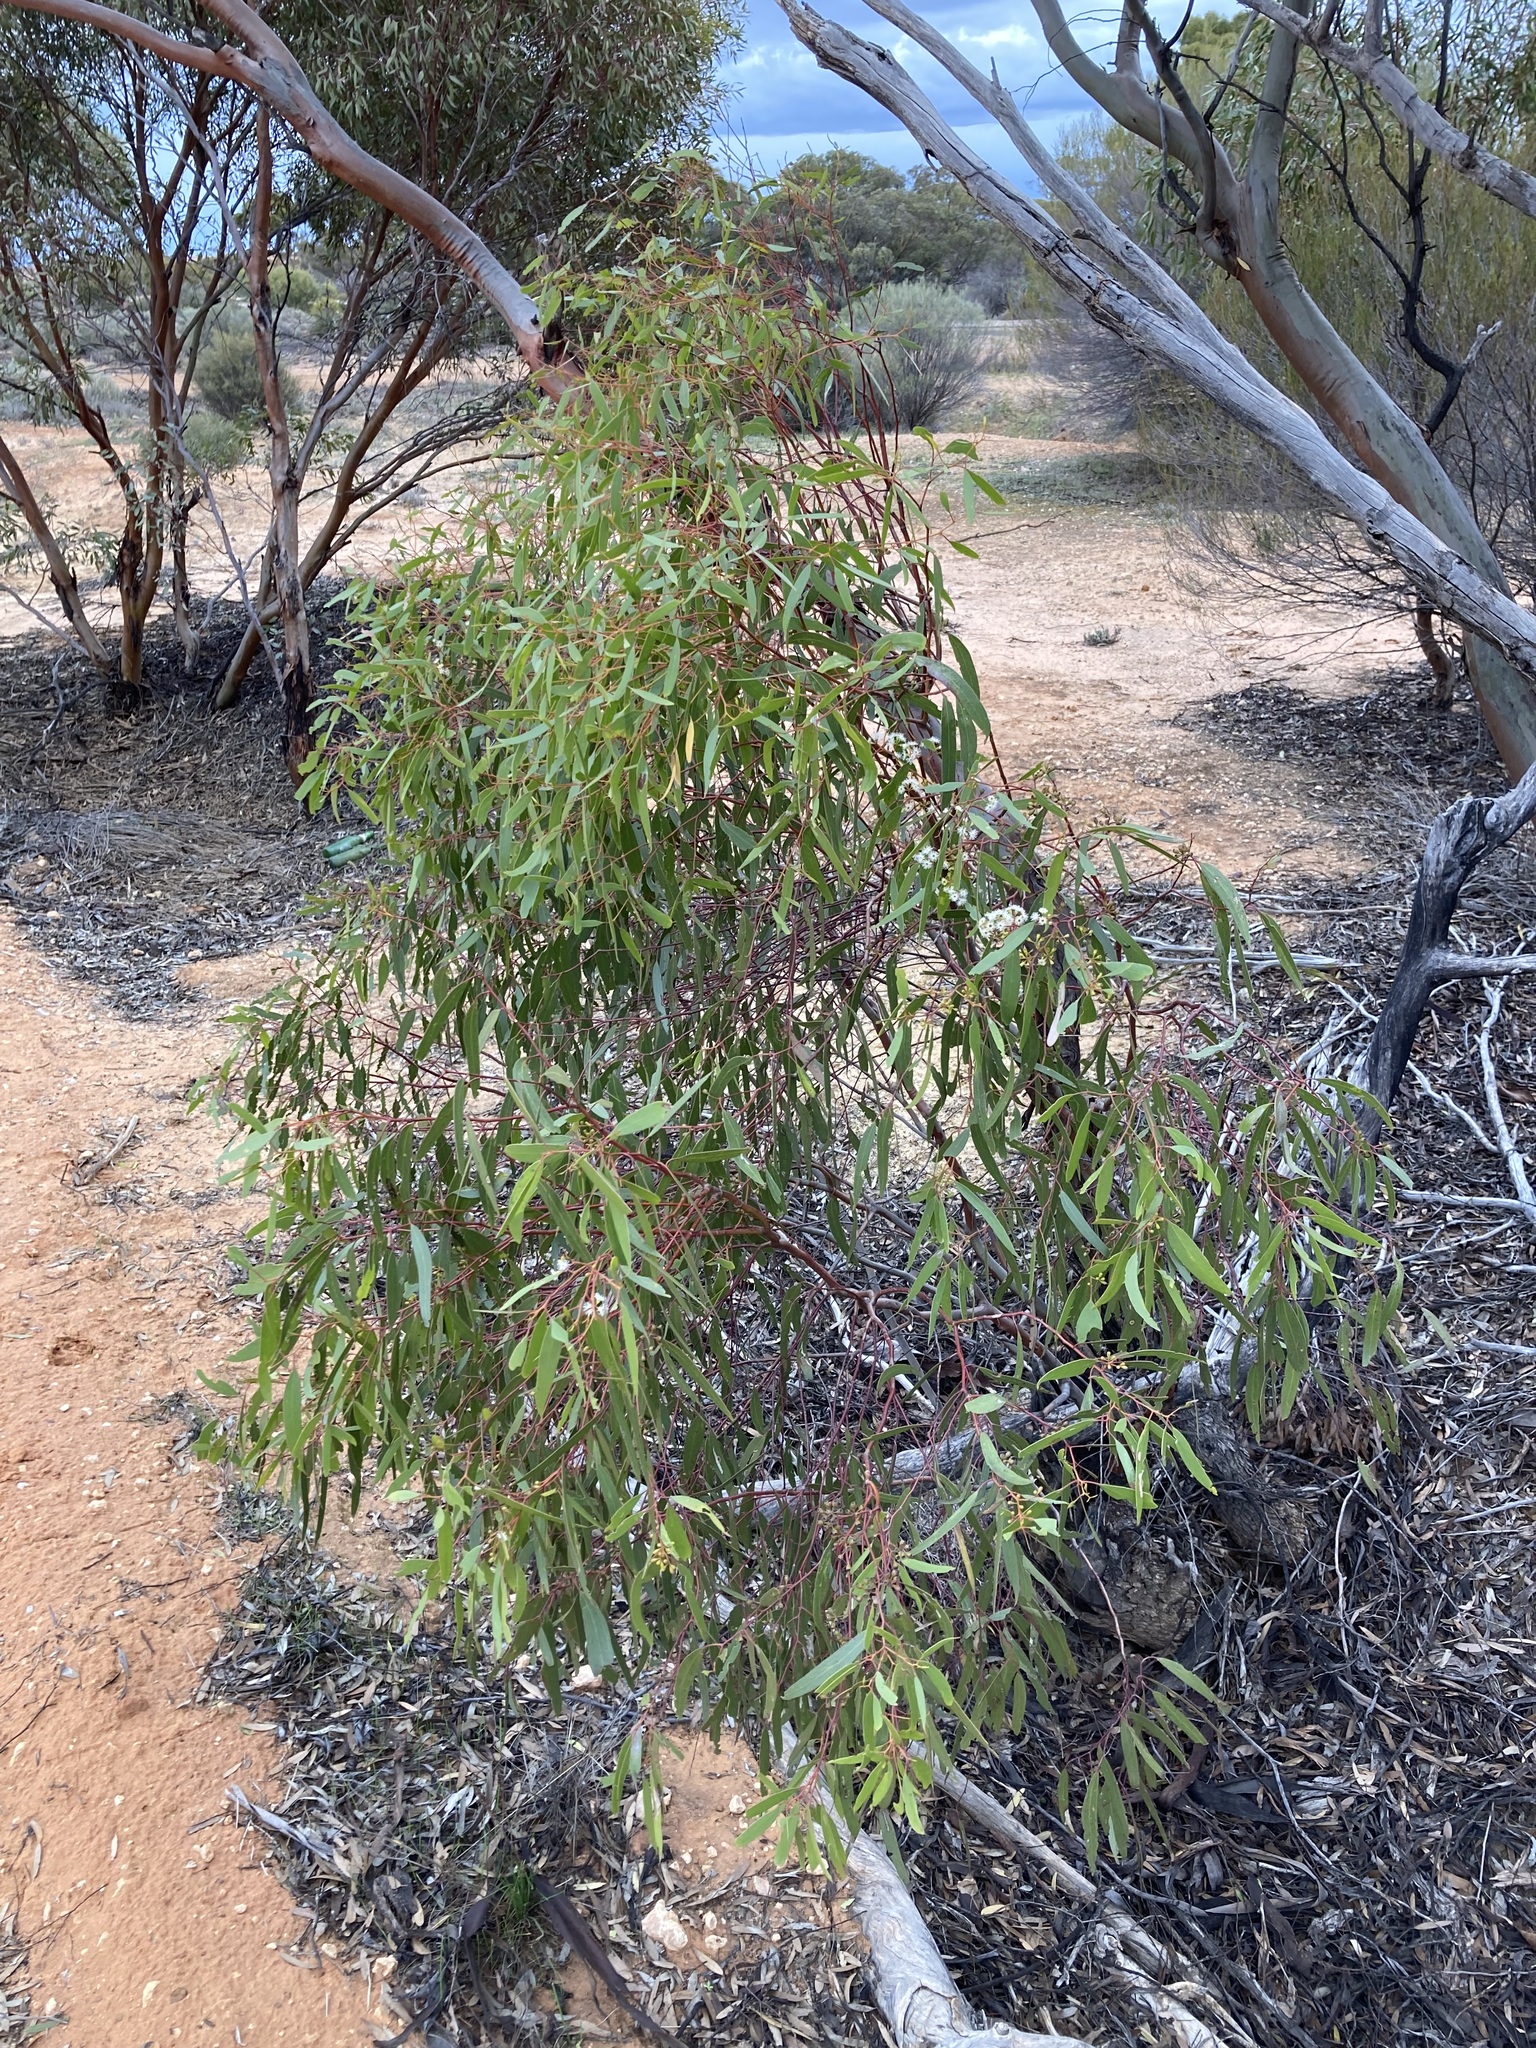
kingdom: Plantae
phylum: Tracheophyta
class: Magnoliopsida
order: Myrtales
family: Myrtaceae
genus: Eucalyptus
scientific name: Eucalyptus yilgarnensis
